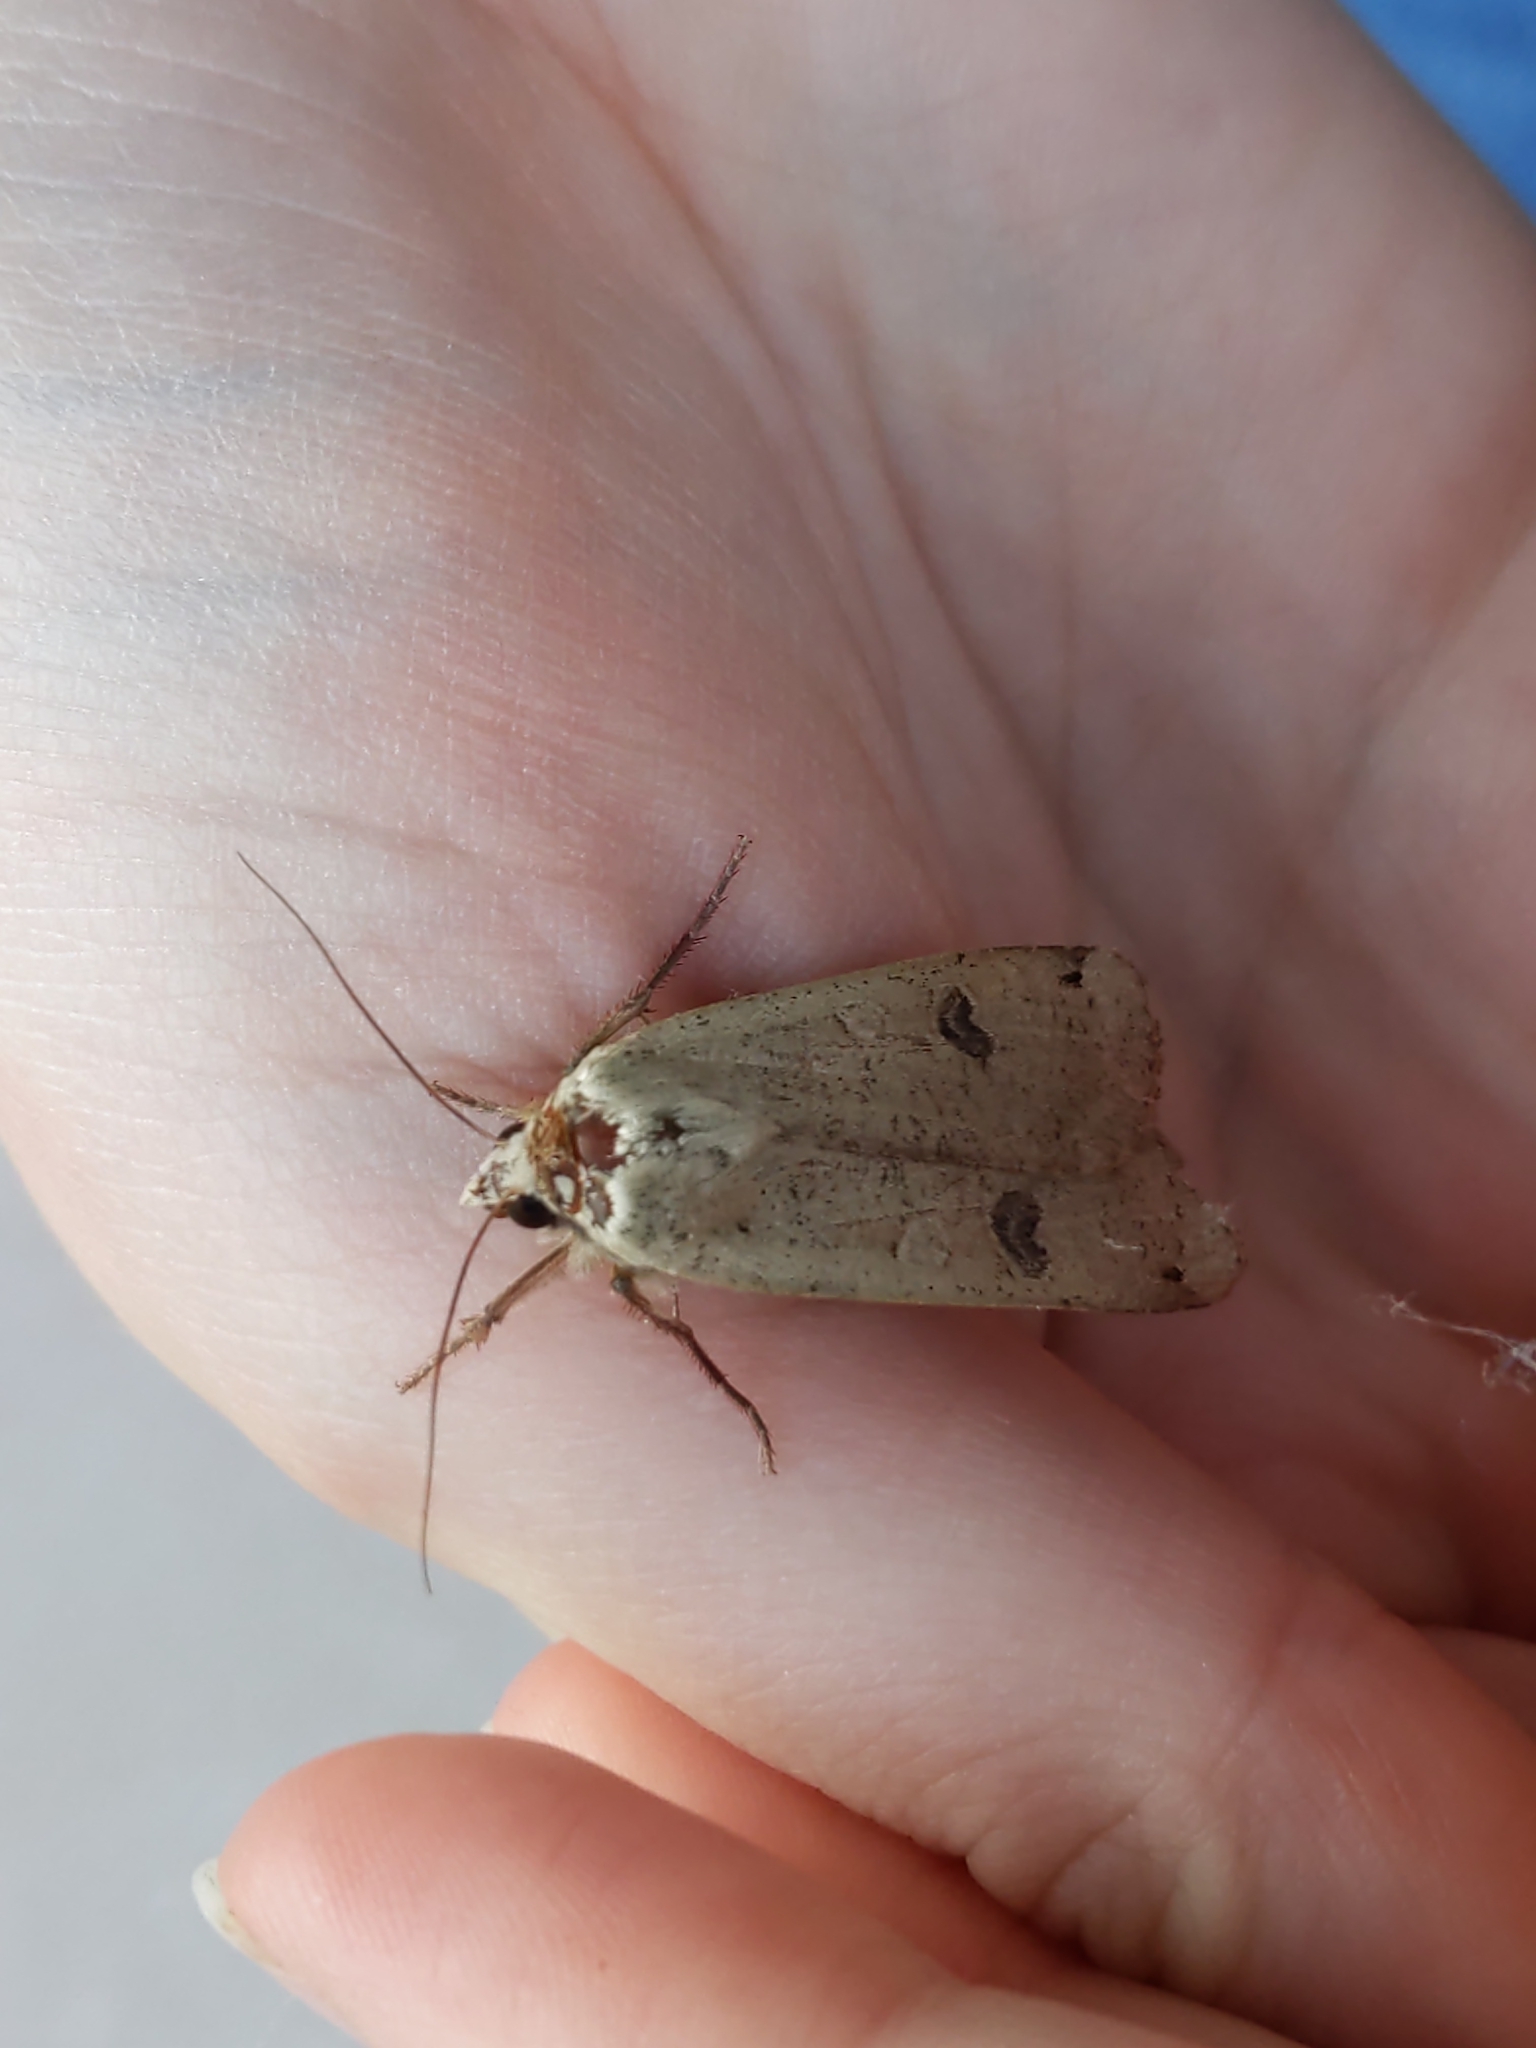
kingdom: Animalia
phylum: Arthropoda
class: Insecta
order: Lepidoptera
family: Noctuidae
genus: Noctua
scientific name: Noctua pronuba
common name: Large yellow underwing
